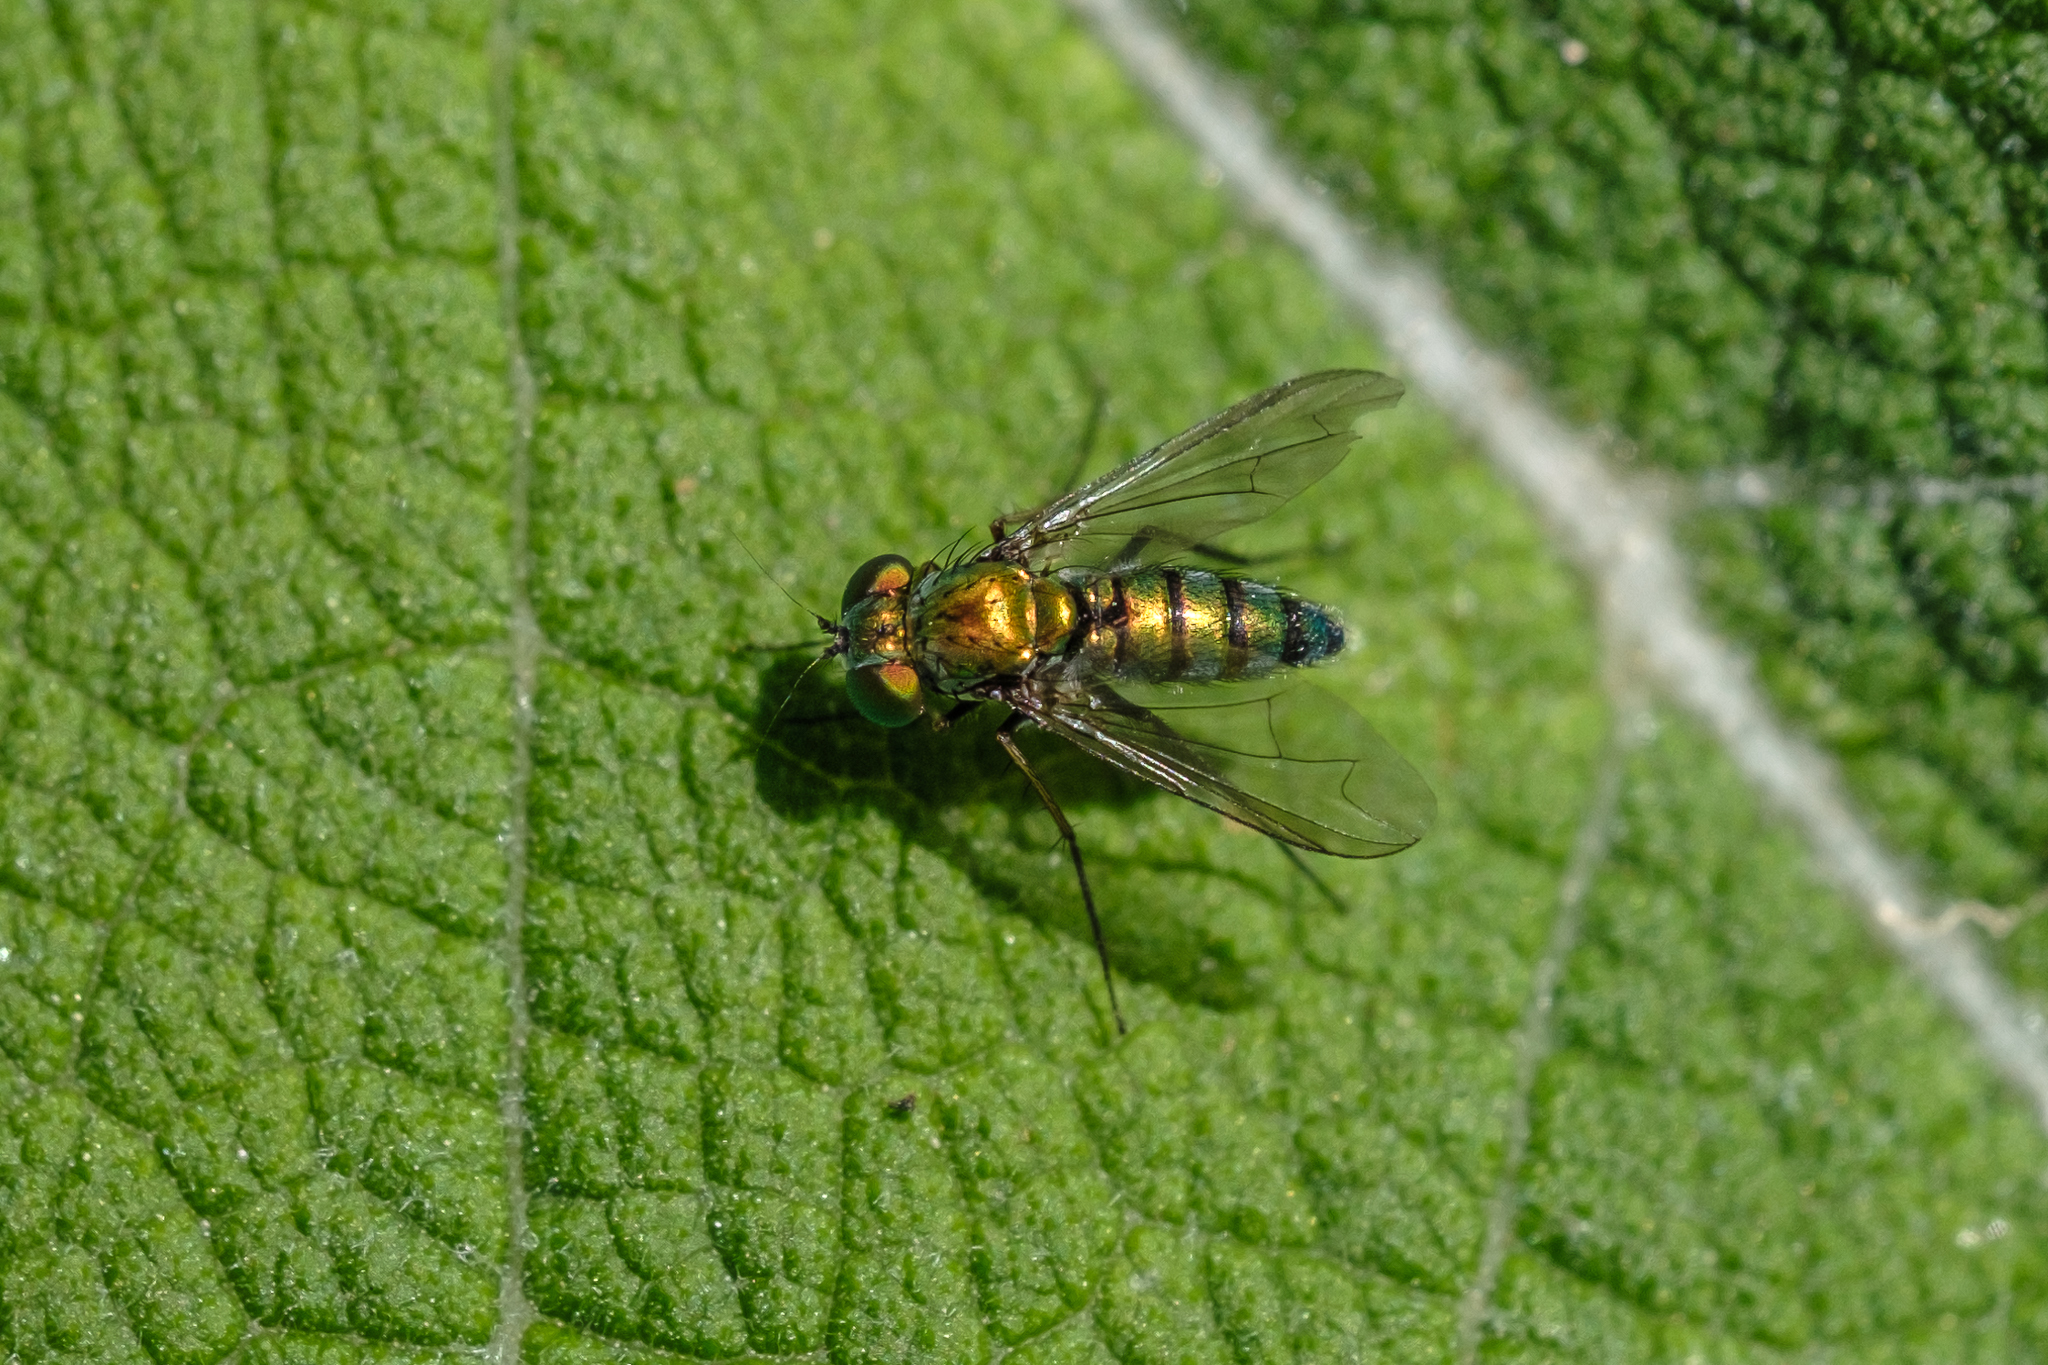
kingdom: Animalia
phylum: Arthropoda
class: Insecta
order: Diptera
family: Dolichopodidae
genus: Condylostylus
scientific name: Condylostylus longicornis
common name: Long-legged fly
